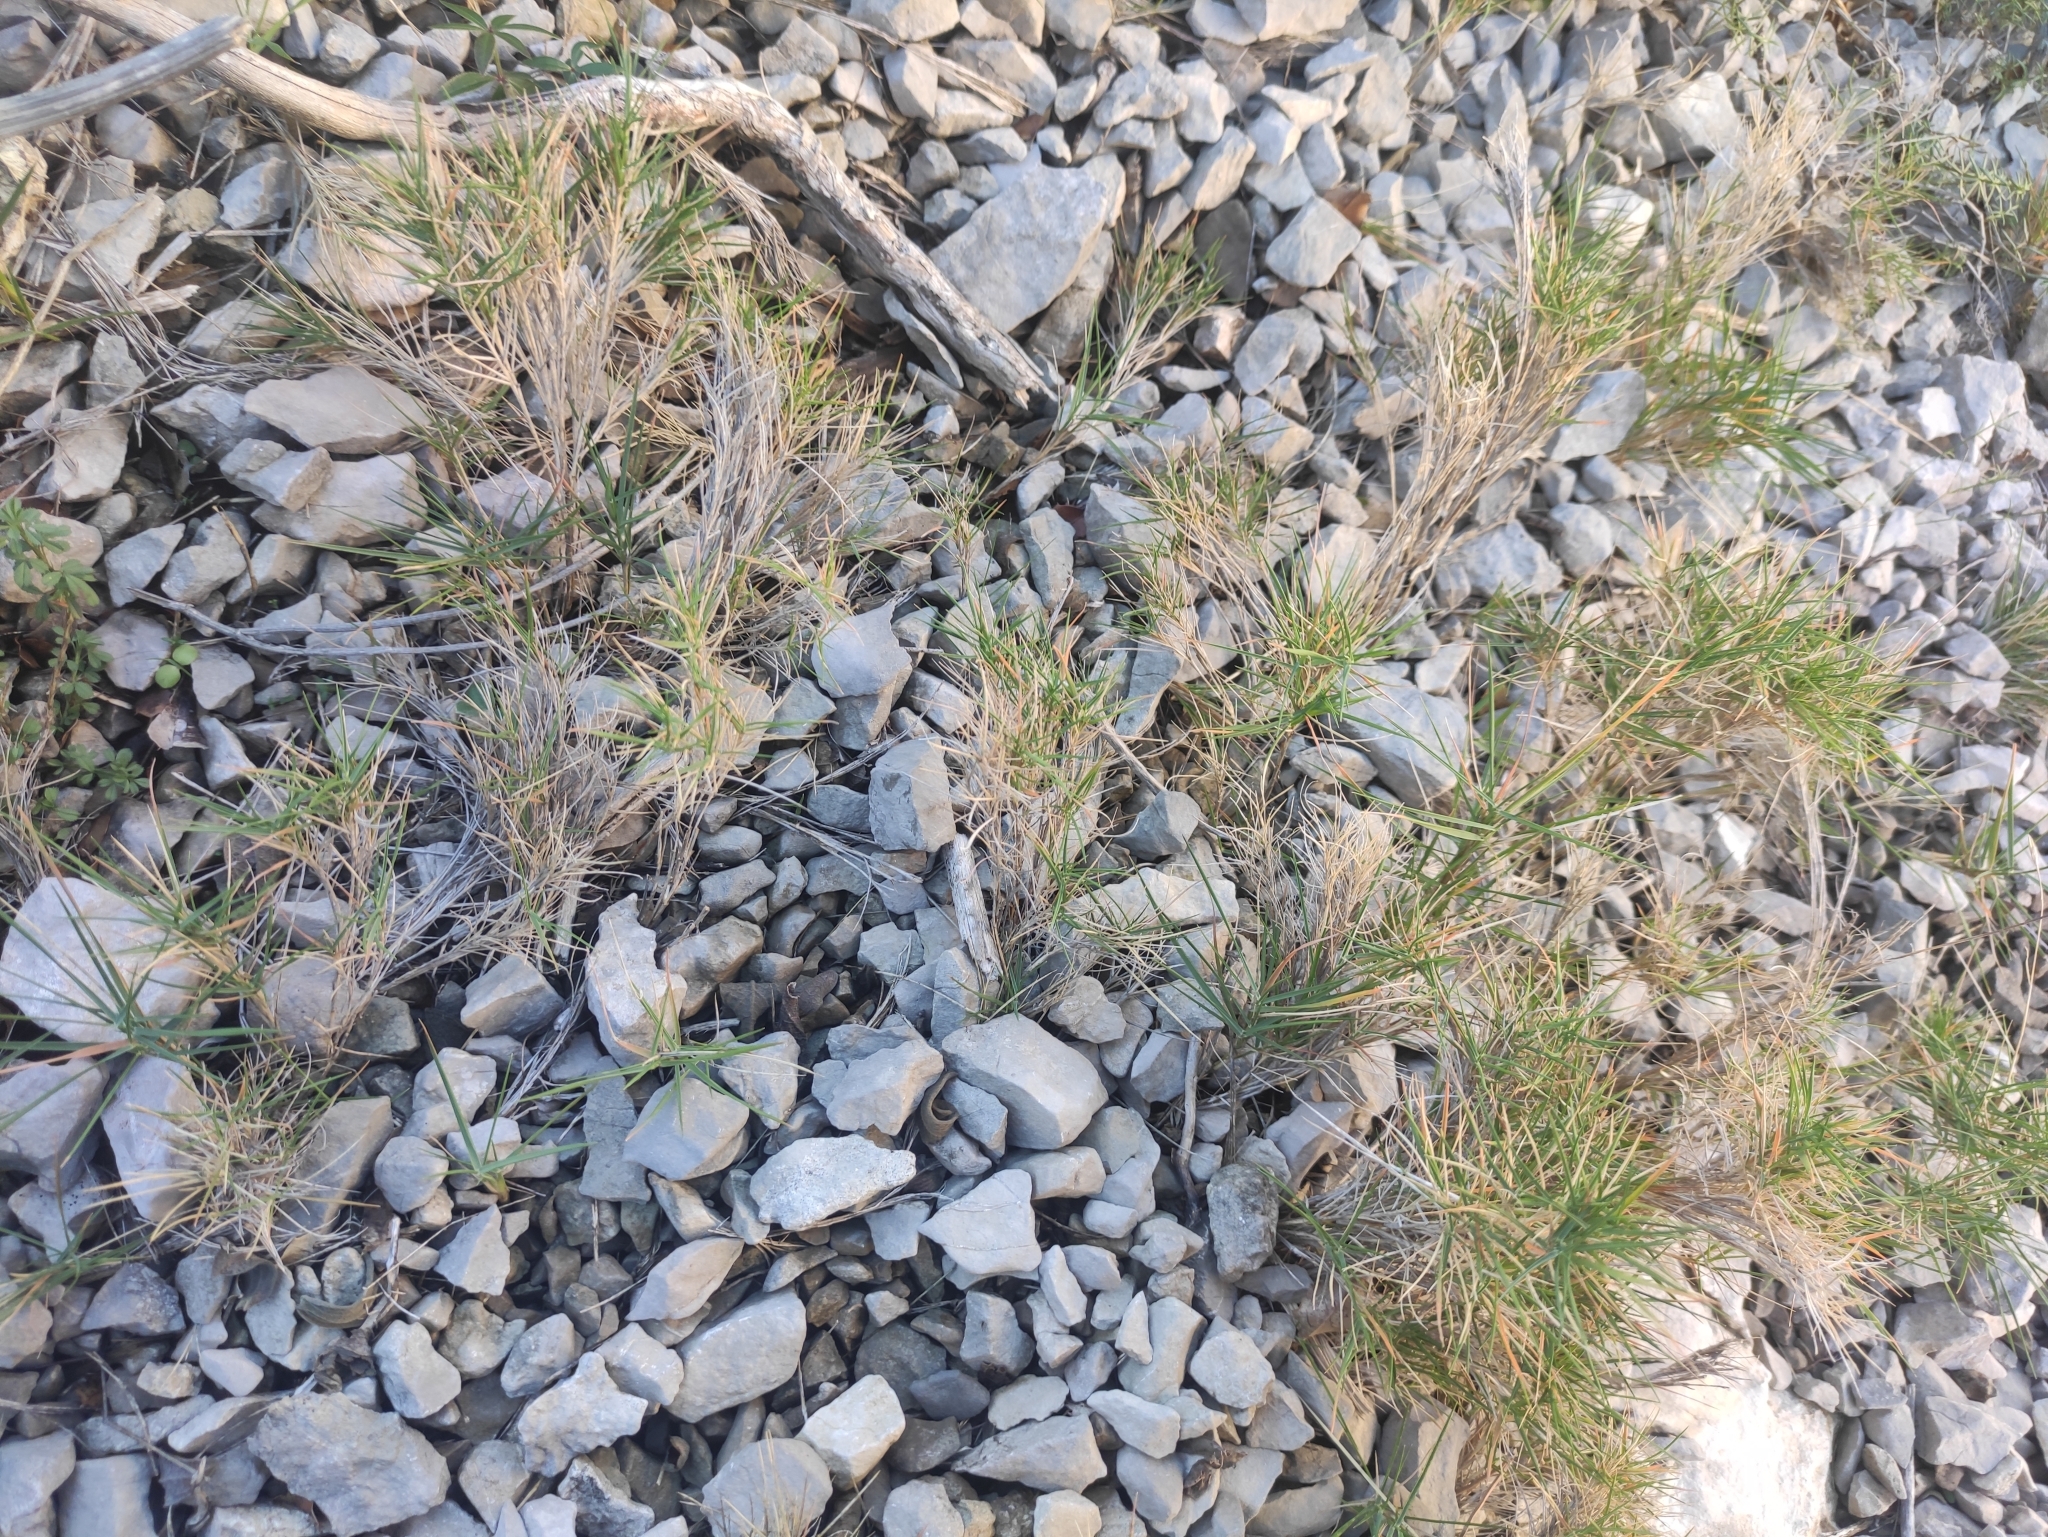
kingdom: Plantae
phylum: Tracheophyta
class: Liliopsida
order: Poales
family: Poaceae
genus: Brachypodium
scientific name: Brachypodium retusum
